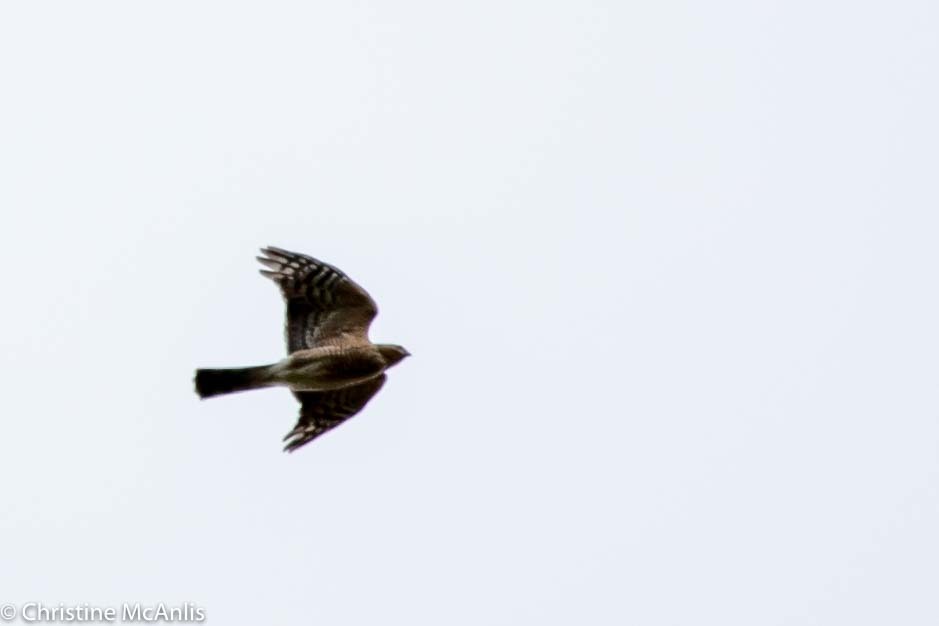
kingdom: Animalia
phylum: Chordata
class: Aves
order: Accipitriformes
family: Accipitridae
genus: Accipiter
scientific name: Accipiter striatus
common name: Sharp-shinned hawk
